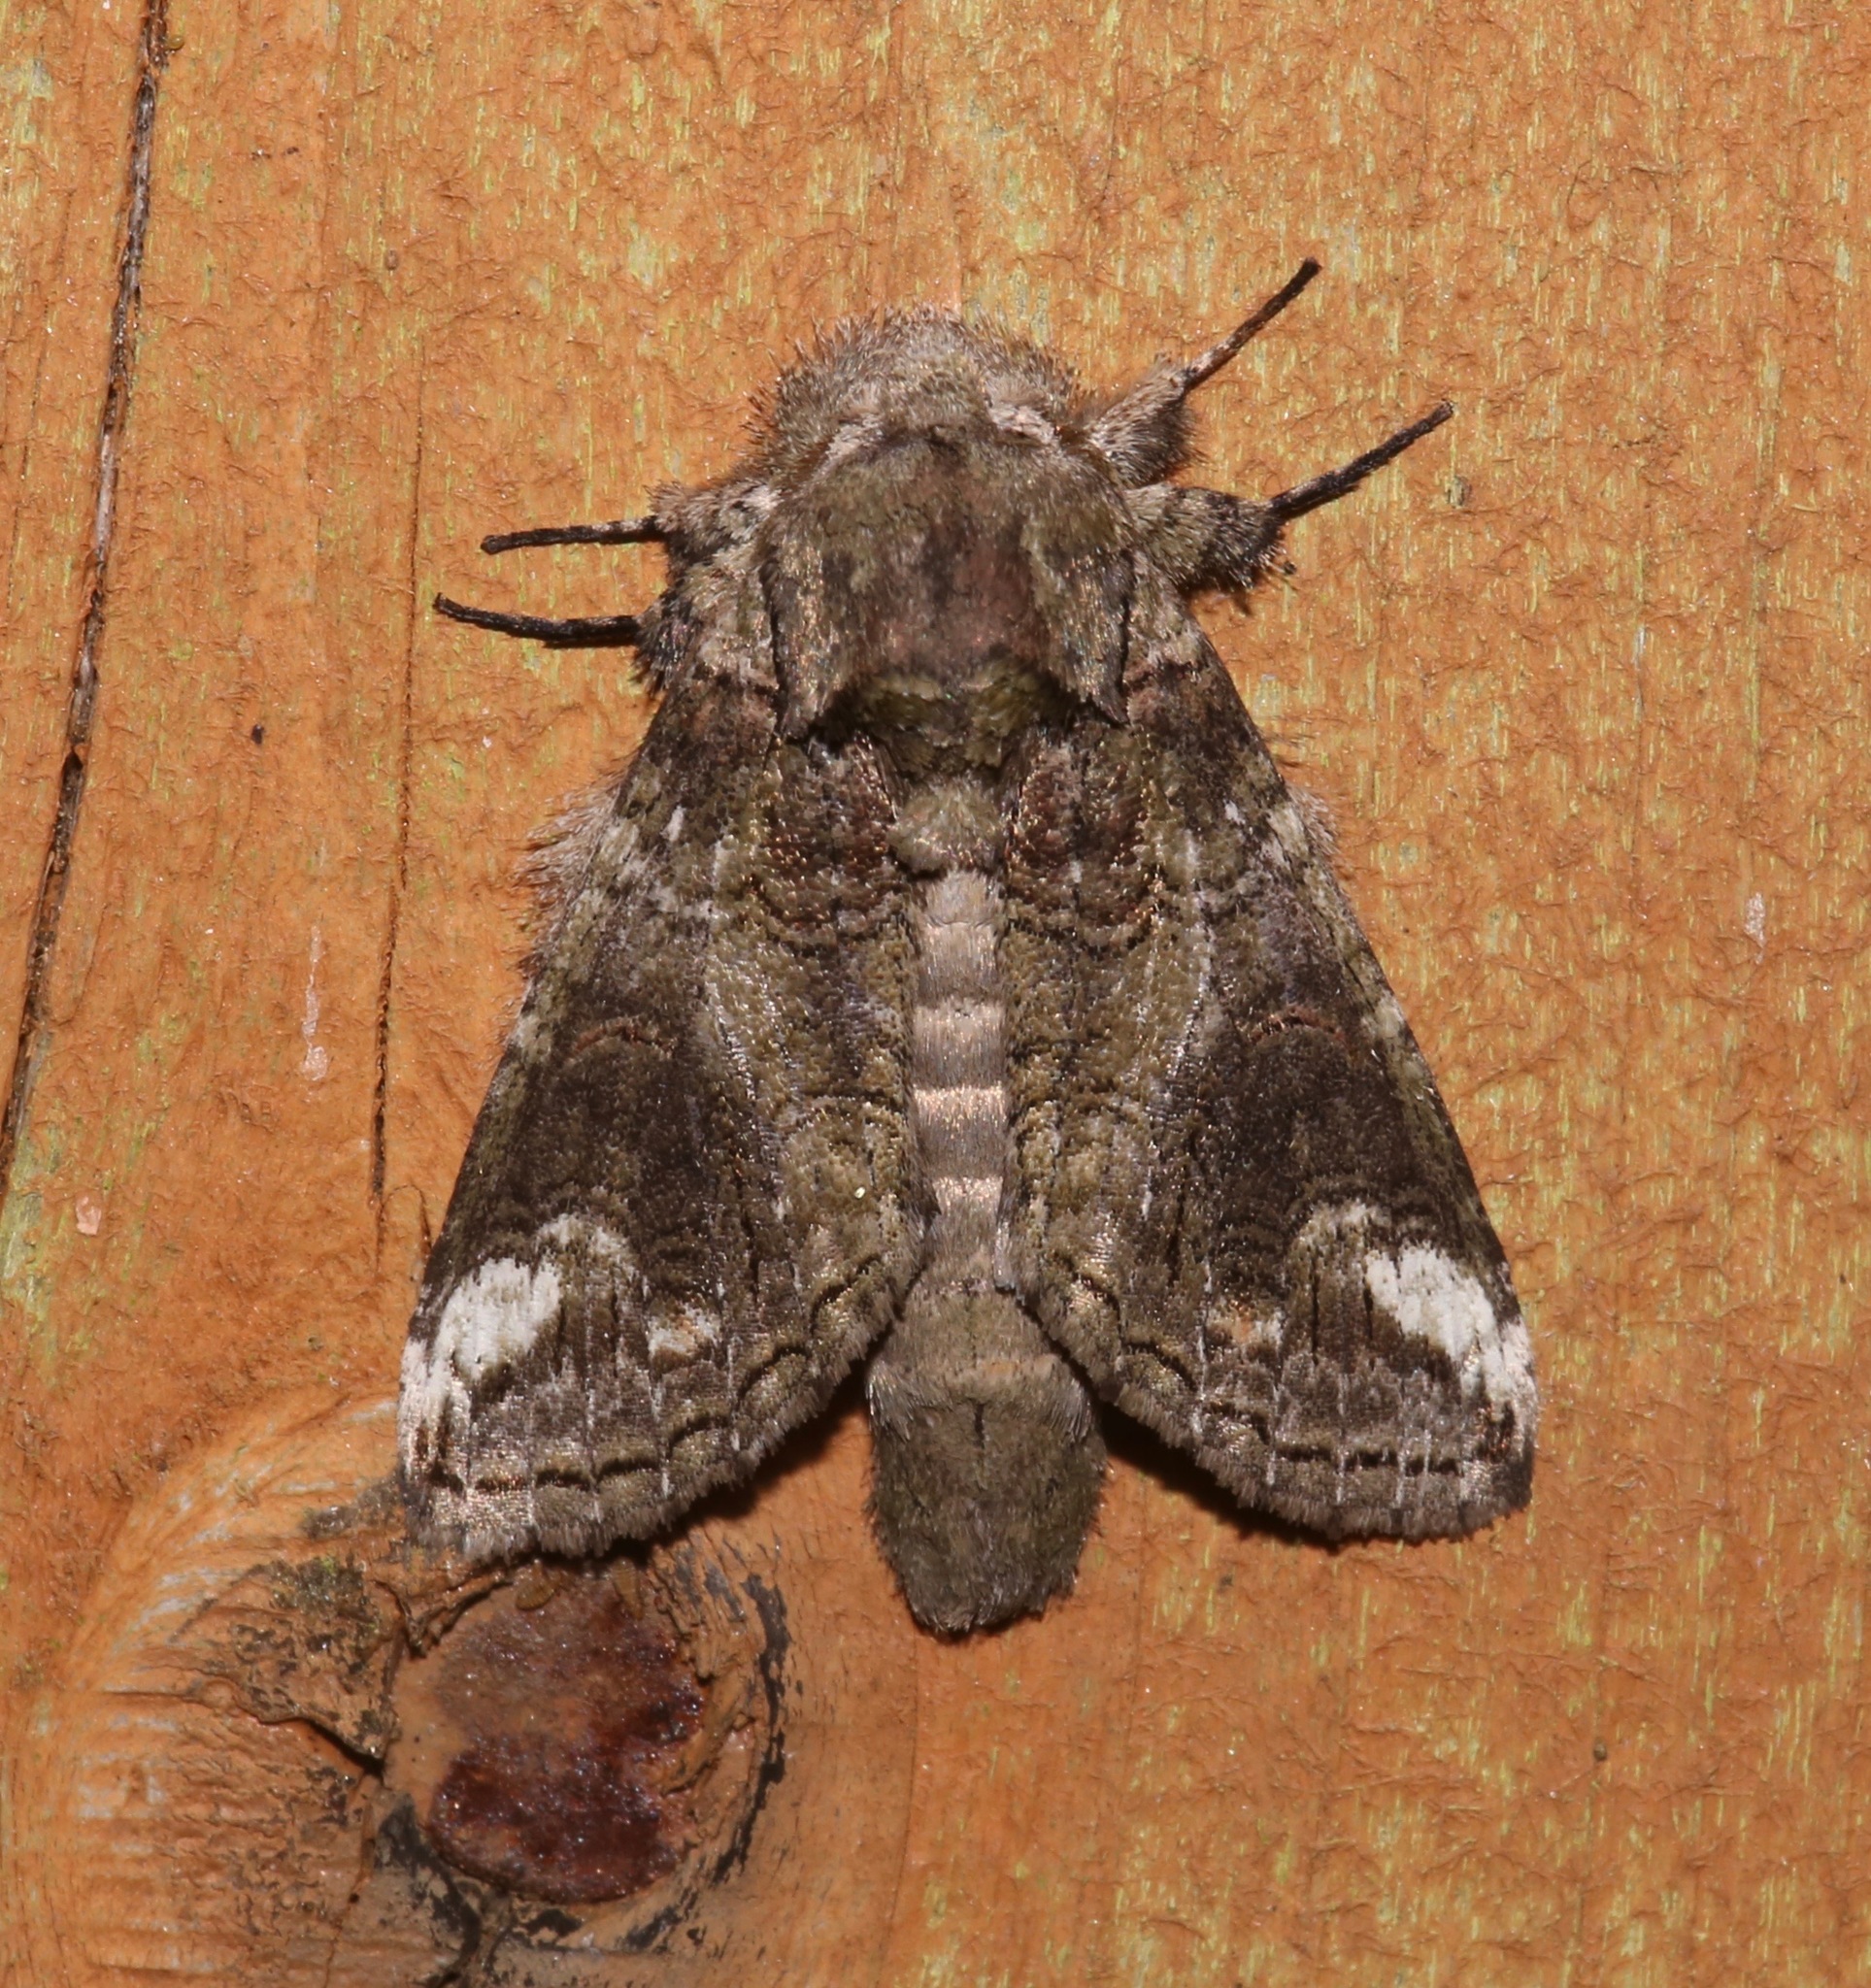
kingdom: Animalia
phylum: Arthropoda
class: Insecta
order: Lepidoptera
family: Notodontidae
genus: Heterocampa
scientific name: Heterocampa obliqua
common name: Oblique heterocampa
